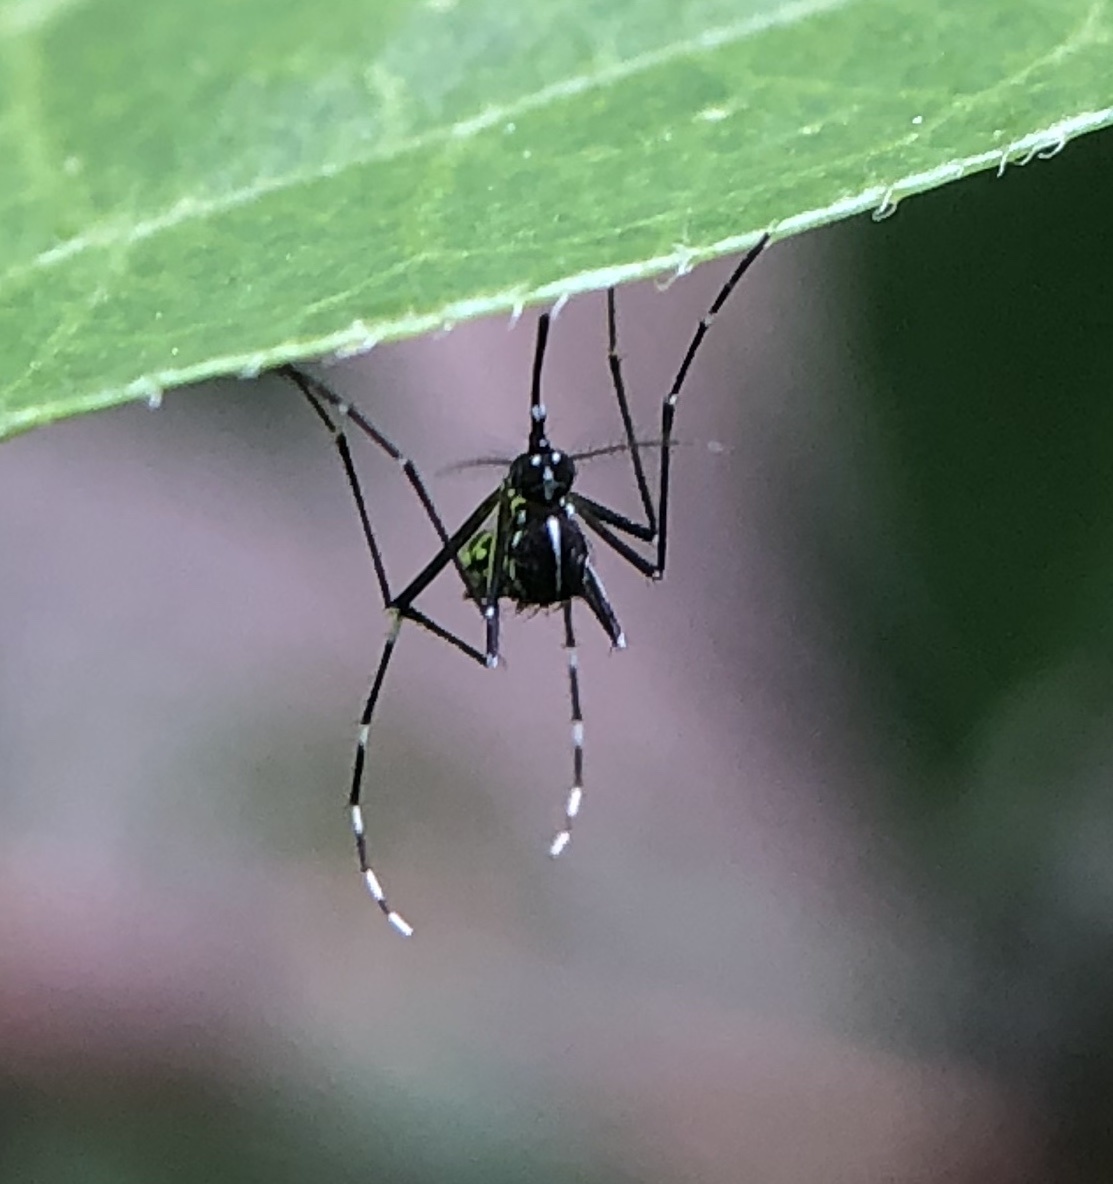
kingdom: Animalia
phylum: Arthropoda
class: Insecta
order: Diptera
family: Culicidae
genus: Aedes
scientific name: Aedes albopictus
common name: Tiger mosquito
